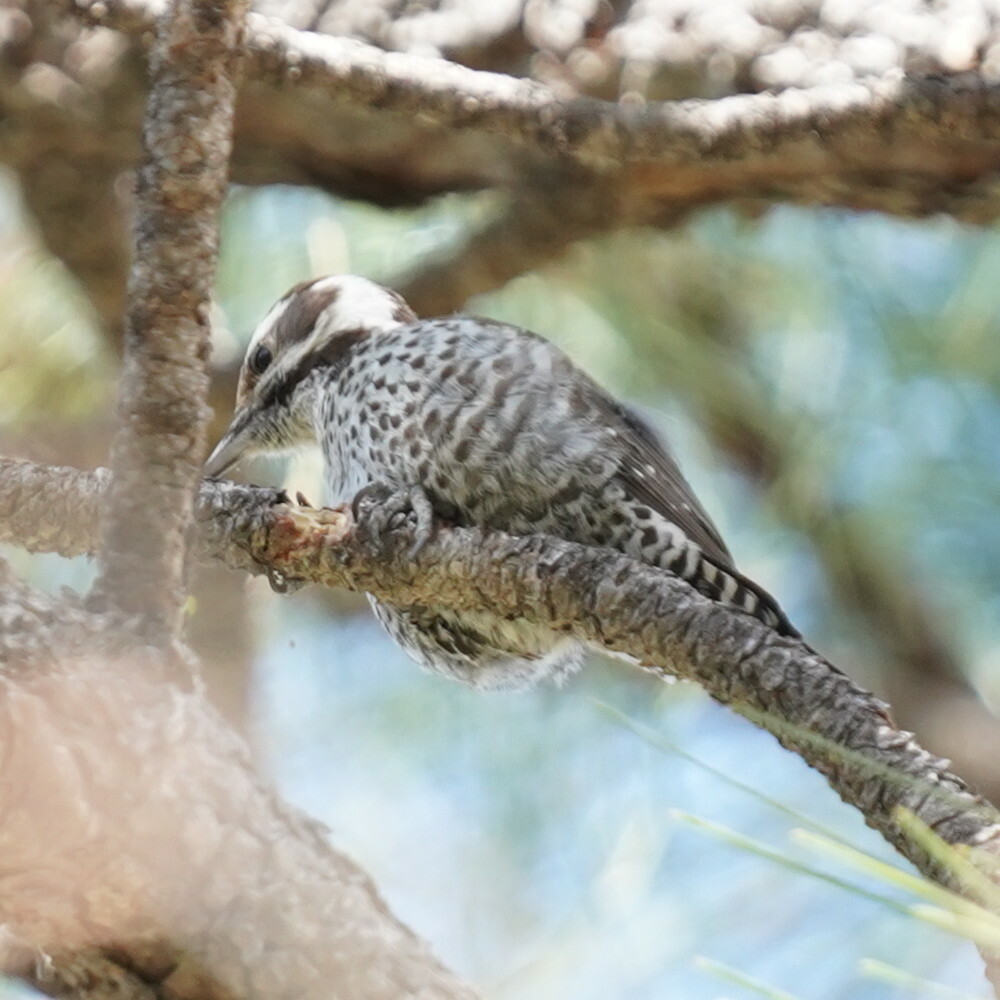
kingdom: Animalia
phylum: Chordata
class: Aves
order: Piciformes
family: Picidae
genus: Leuconotopicus
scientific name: Leuconotopicus arizonae
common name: Arizona woodpecker
